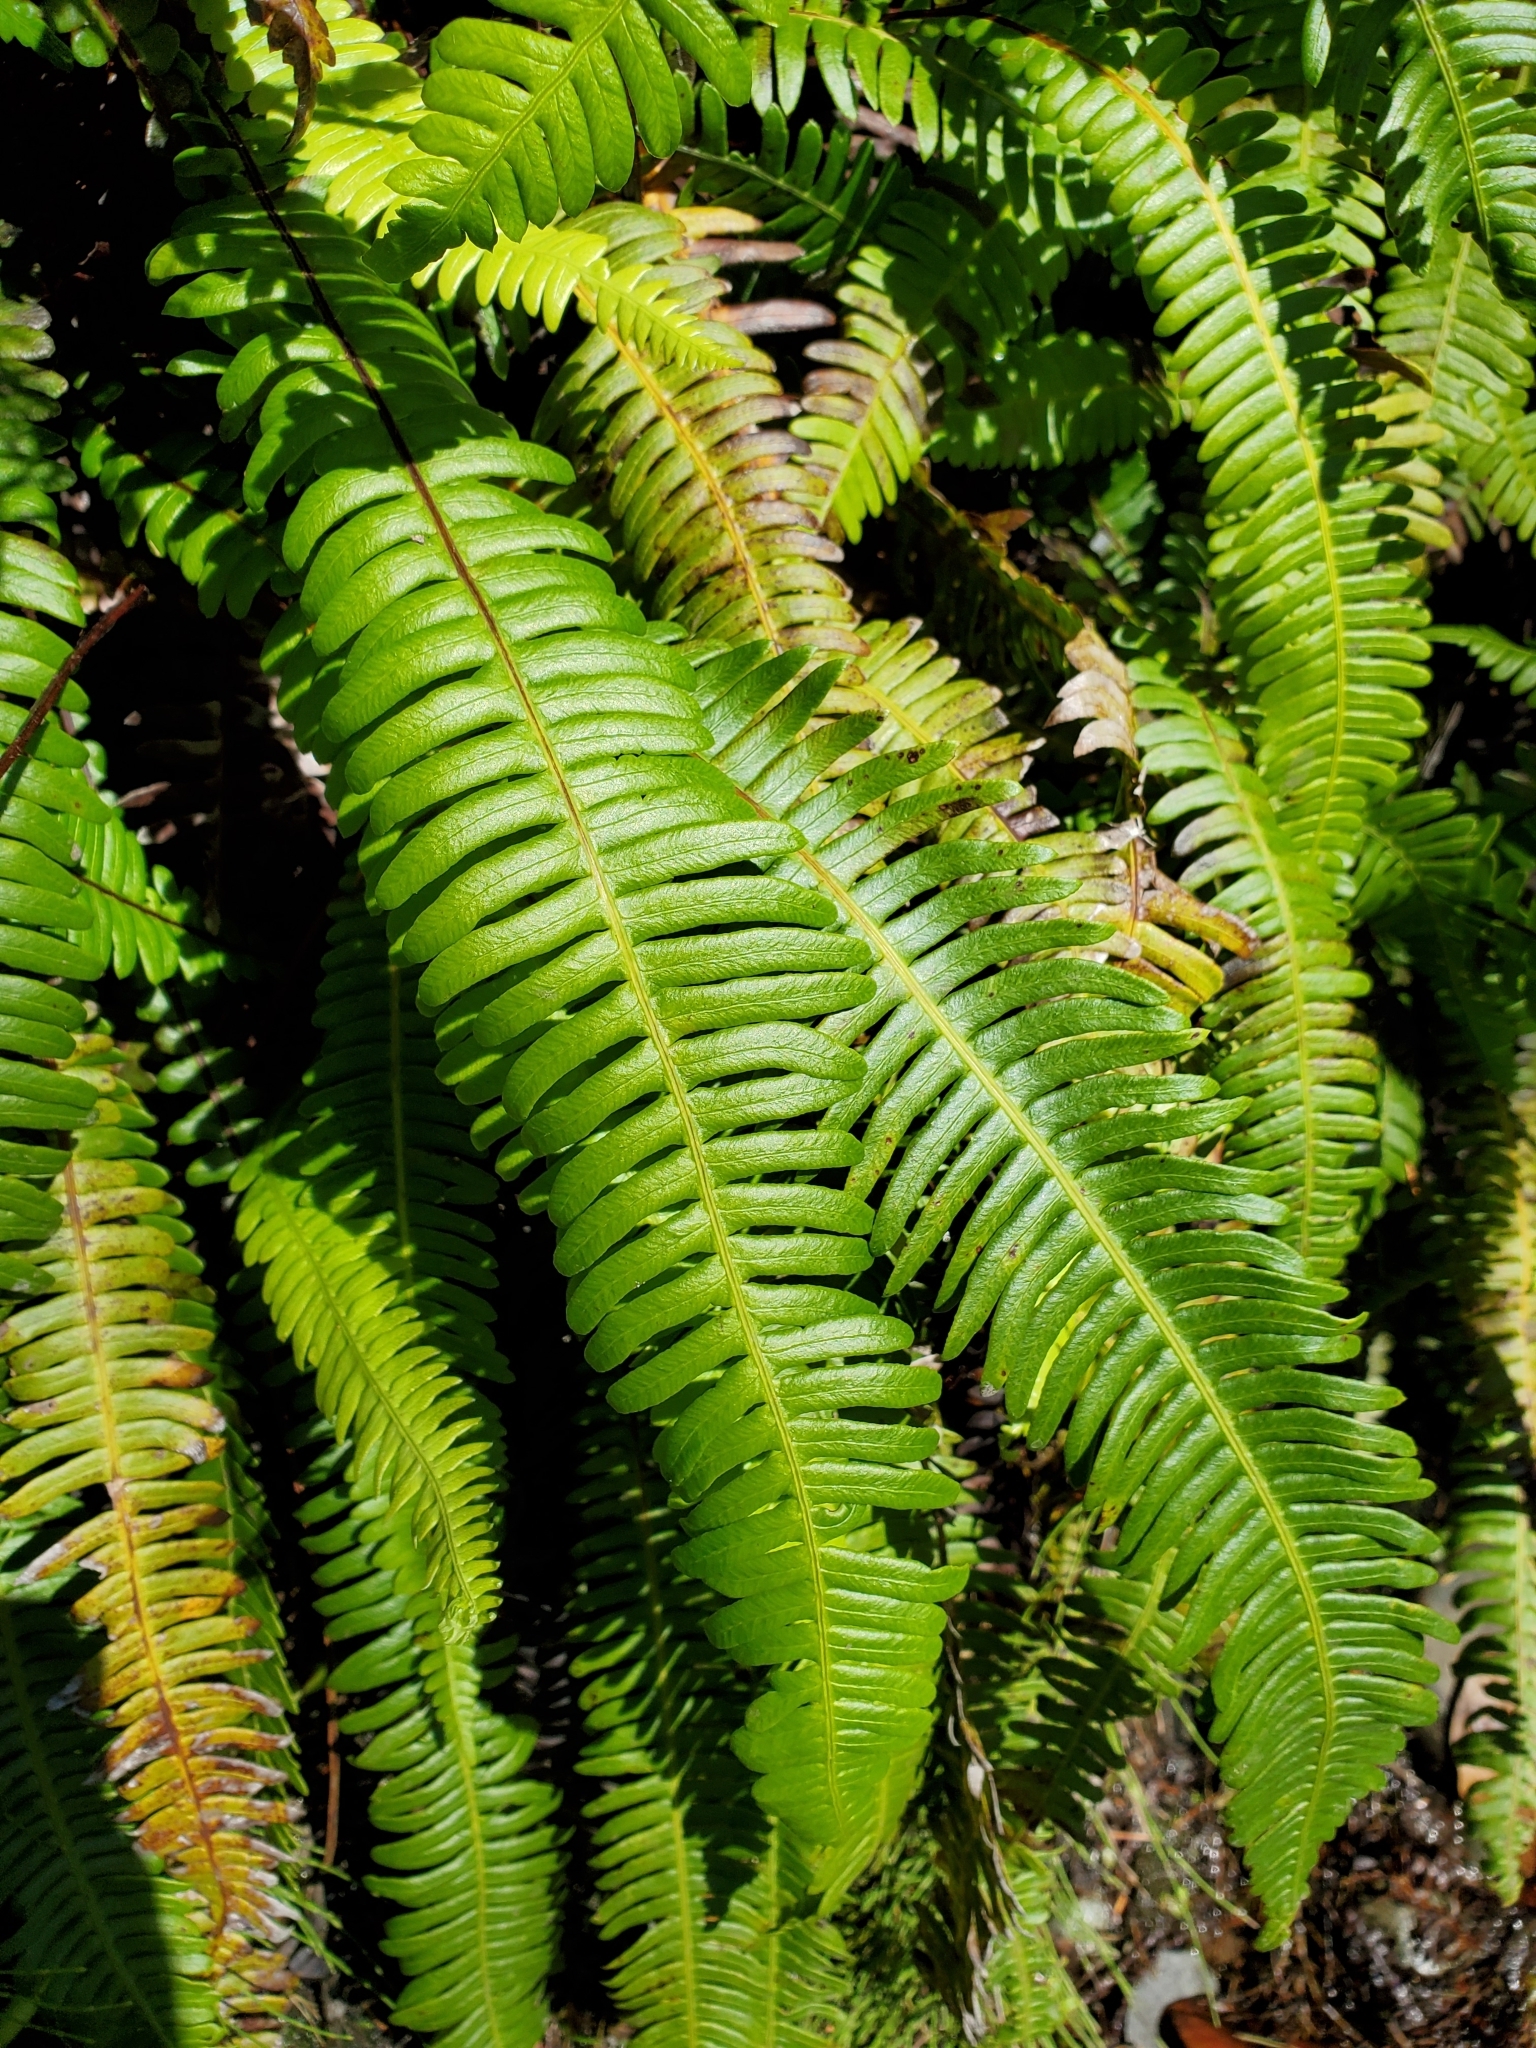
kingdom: Plantae
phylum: Tracheophyta
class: Polypodiopsida
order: Polypodiales
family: Blechnaceae
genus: Struthiopteris
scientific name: Struthiopteris spicant
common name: Deer fern
